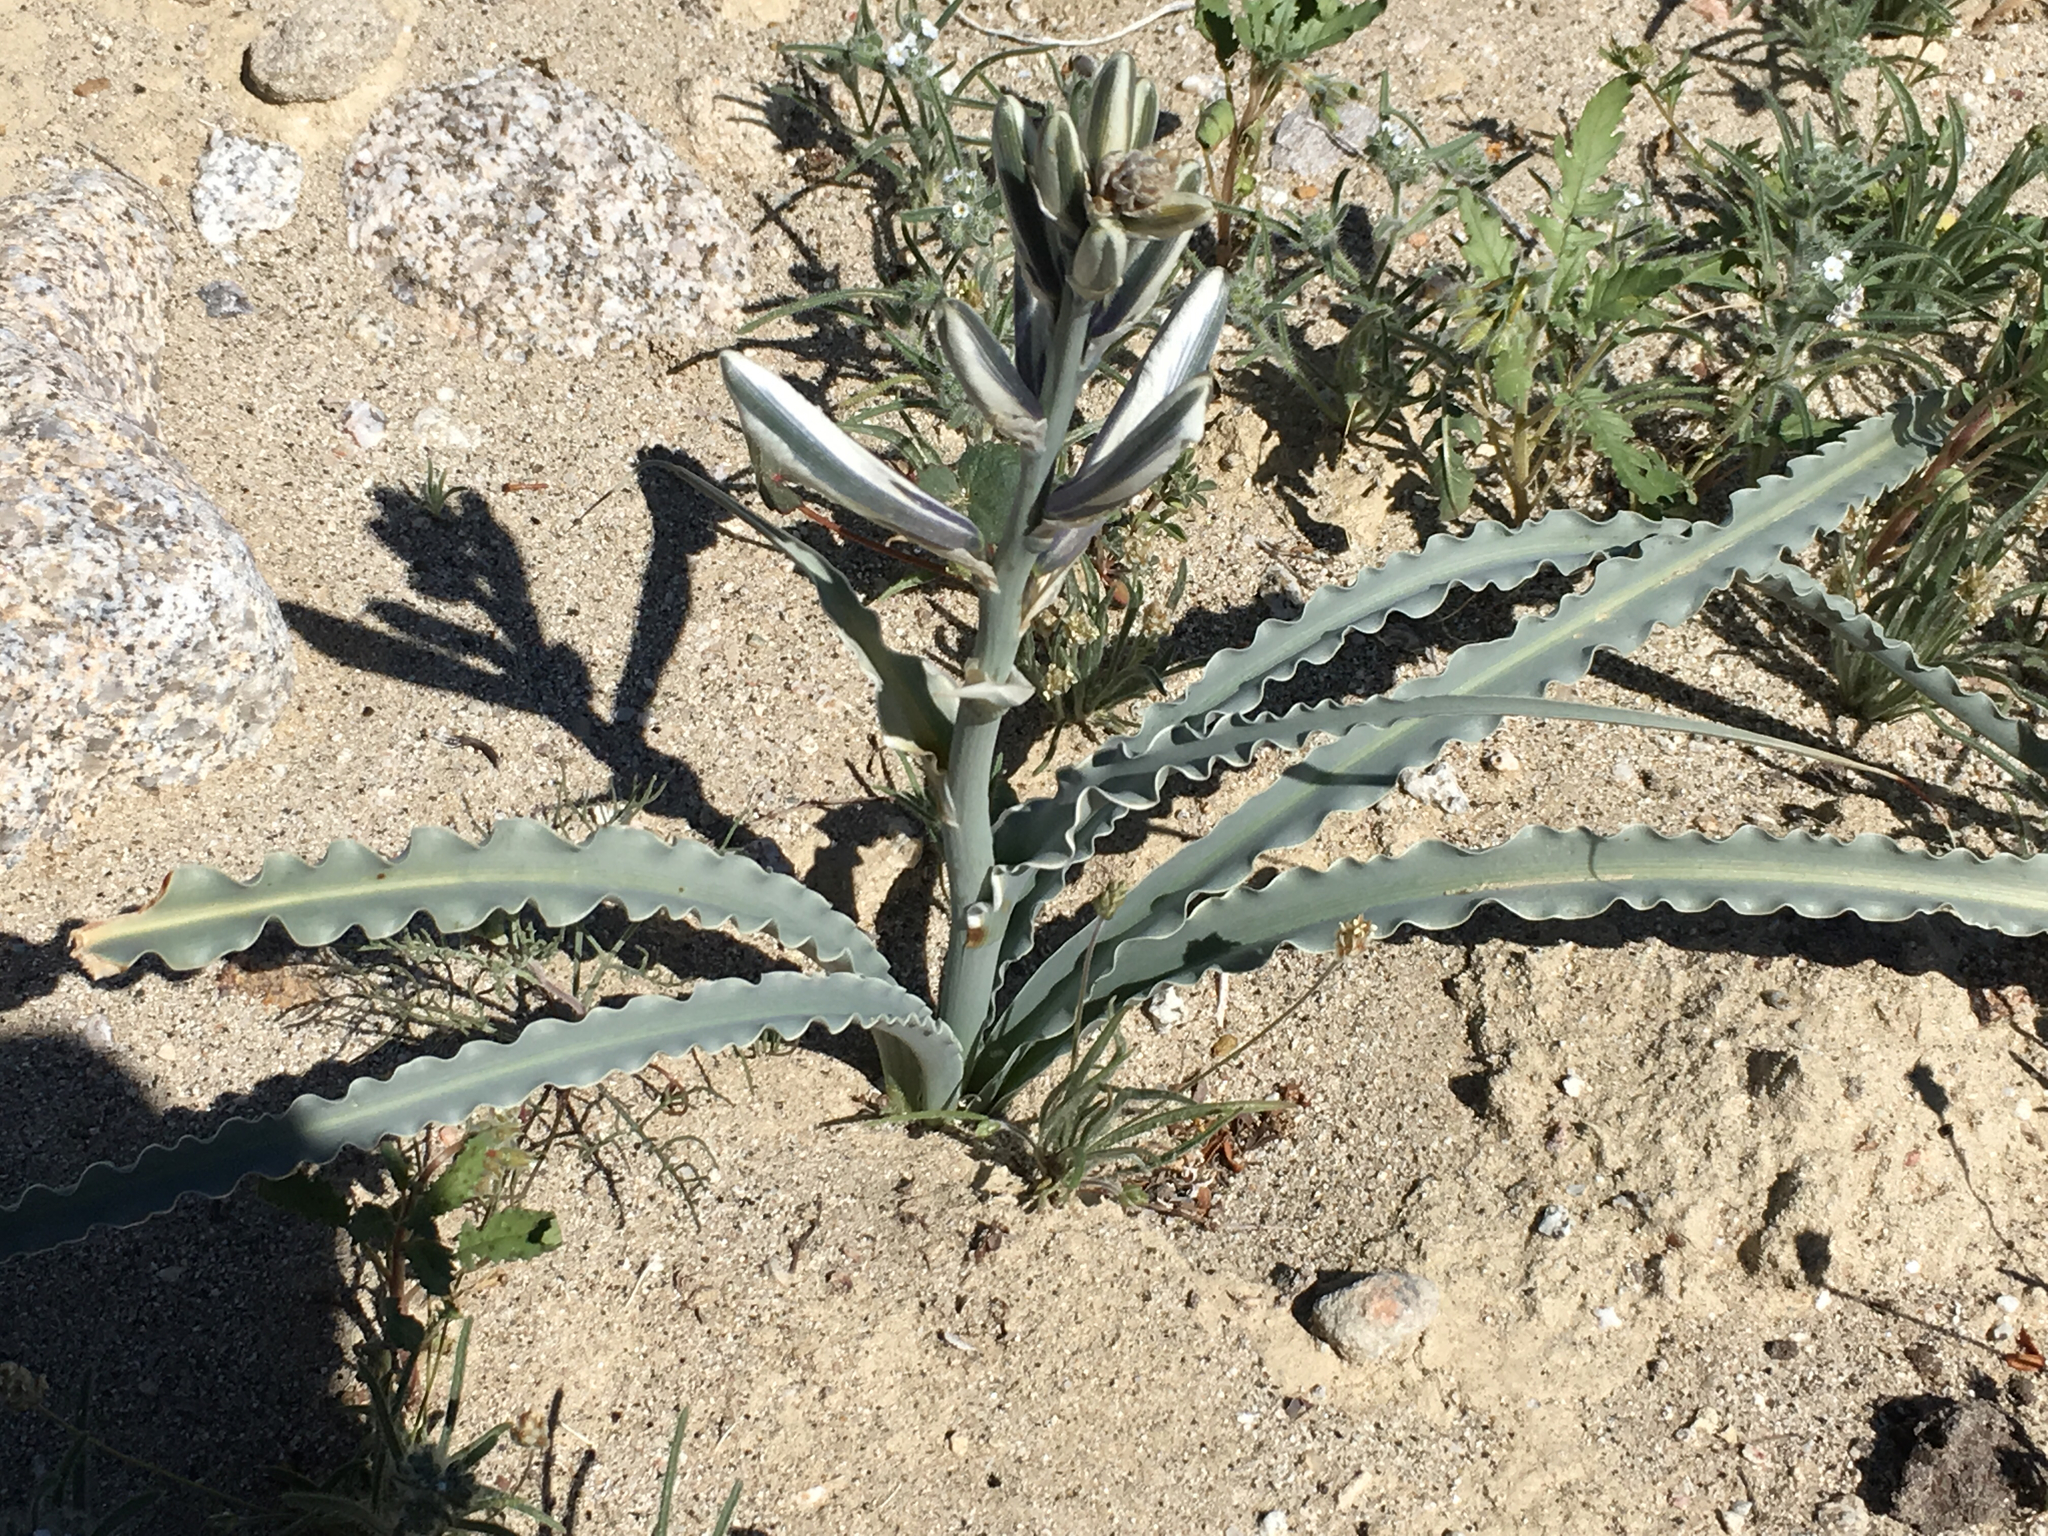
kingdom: Plantae
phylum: Tracheophyta
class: Liliopsida
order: Asparagales
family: Asparagaceae
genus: Hesperocallis
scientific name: Hesperocallis undulata
